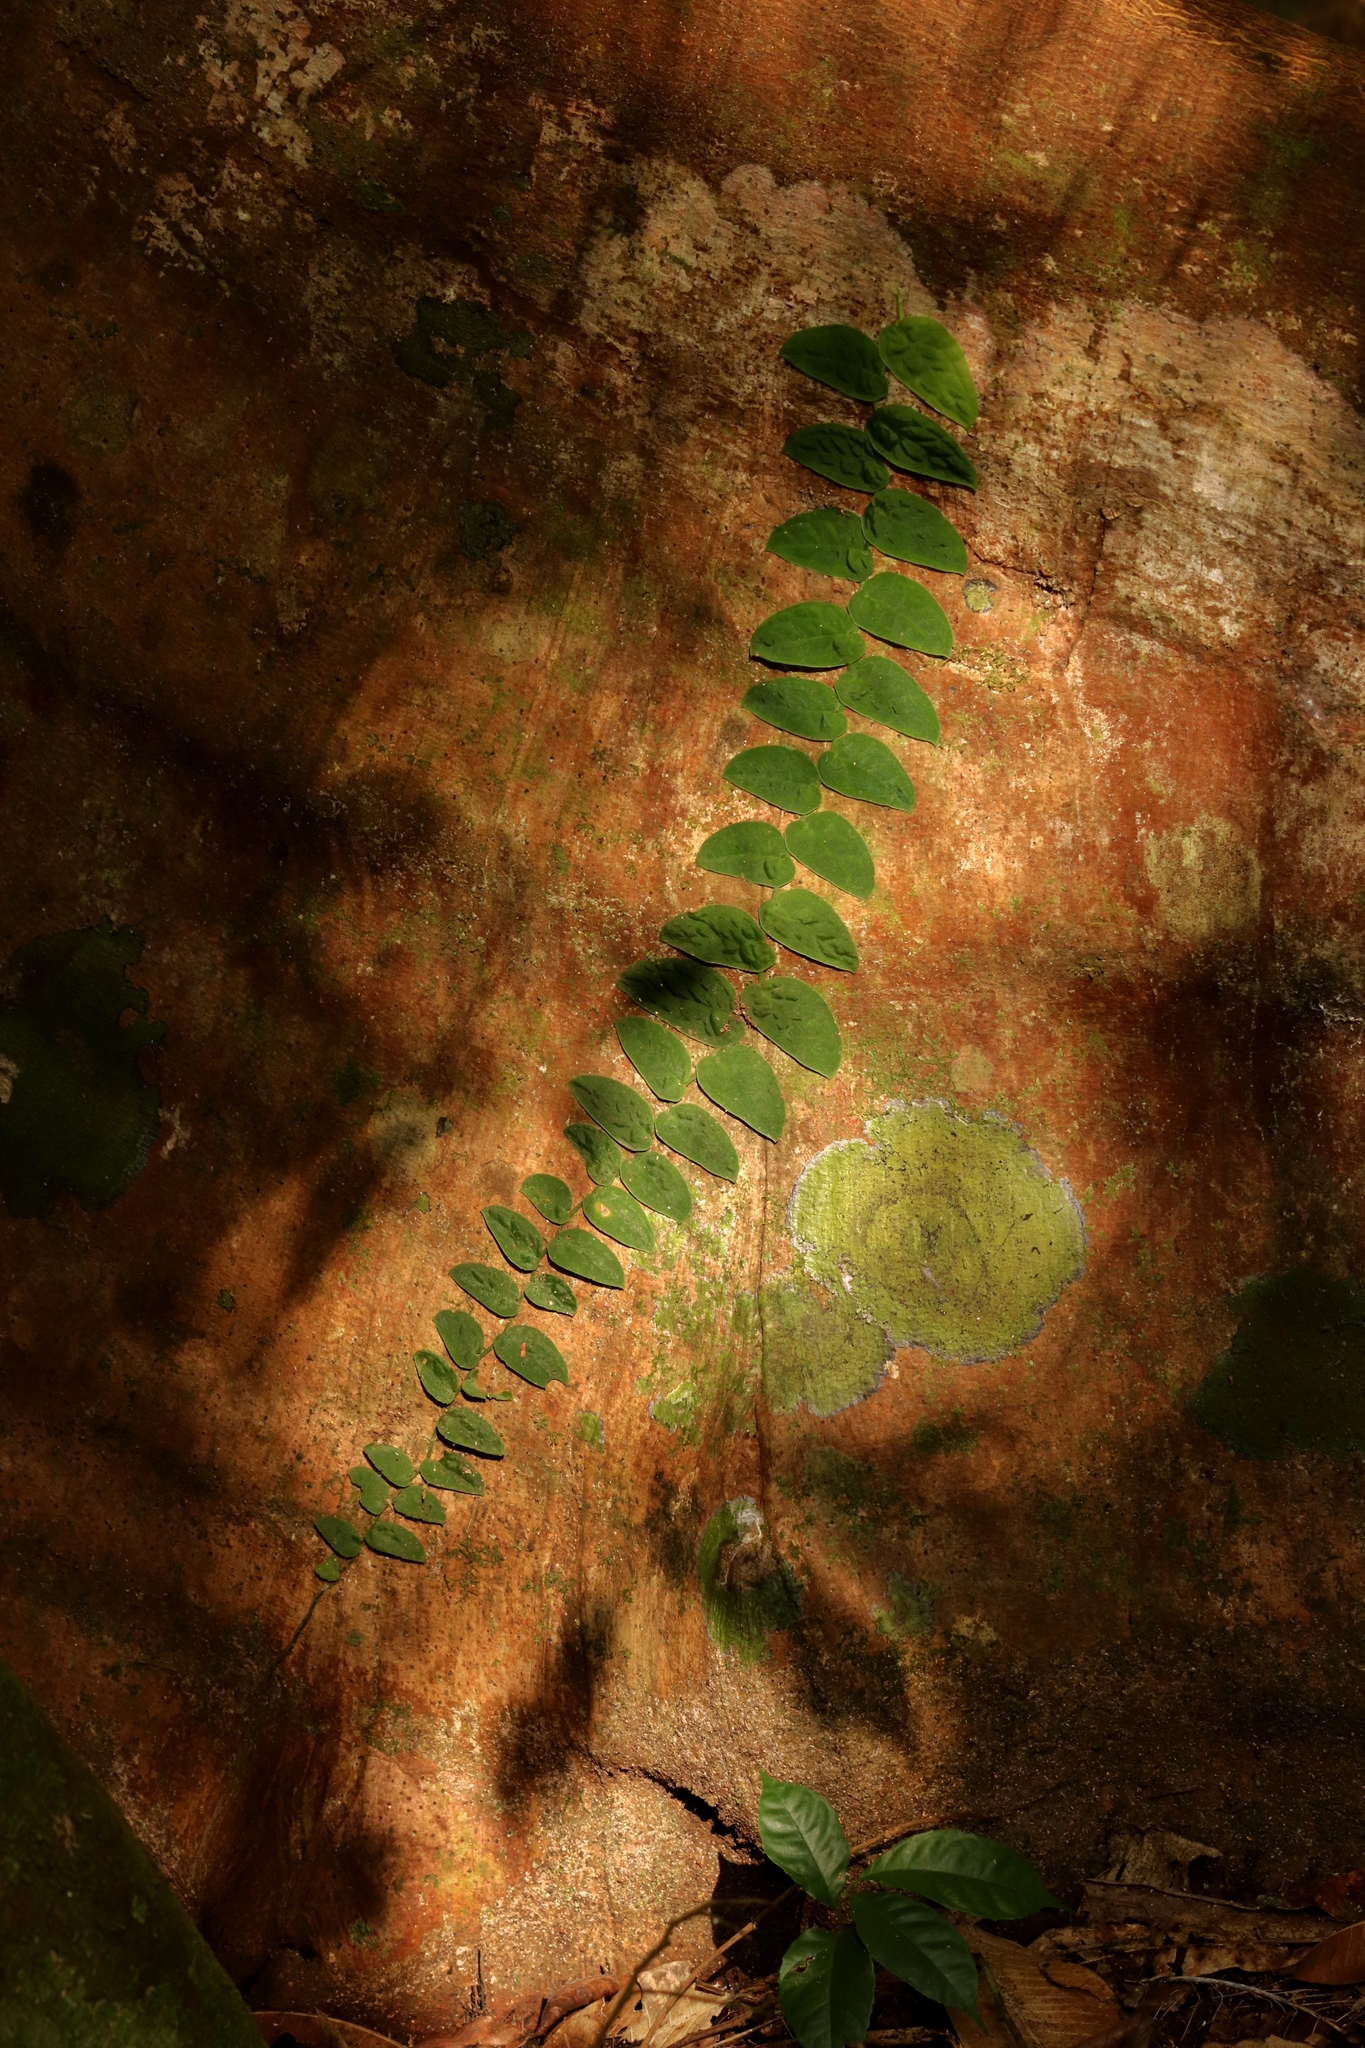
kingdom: Plantae
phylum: Tracheophyta
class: Liliopsida
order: Alismatales
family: Araceae
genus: Monstera
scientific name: Monstera dubia
